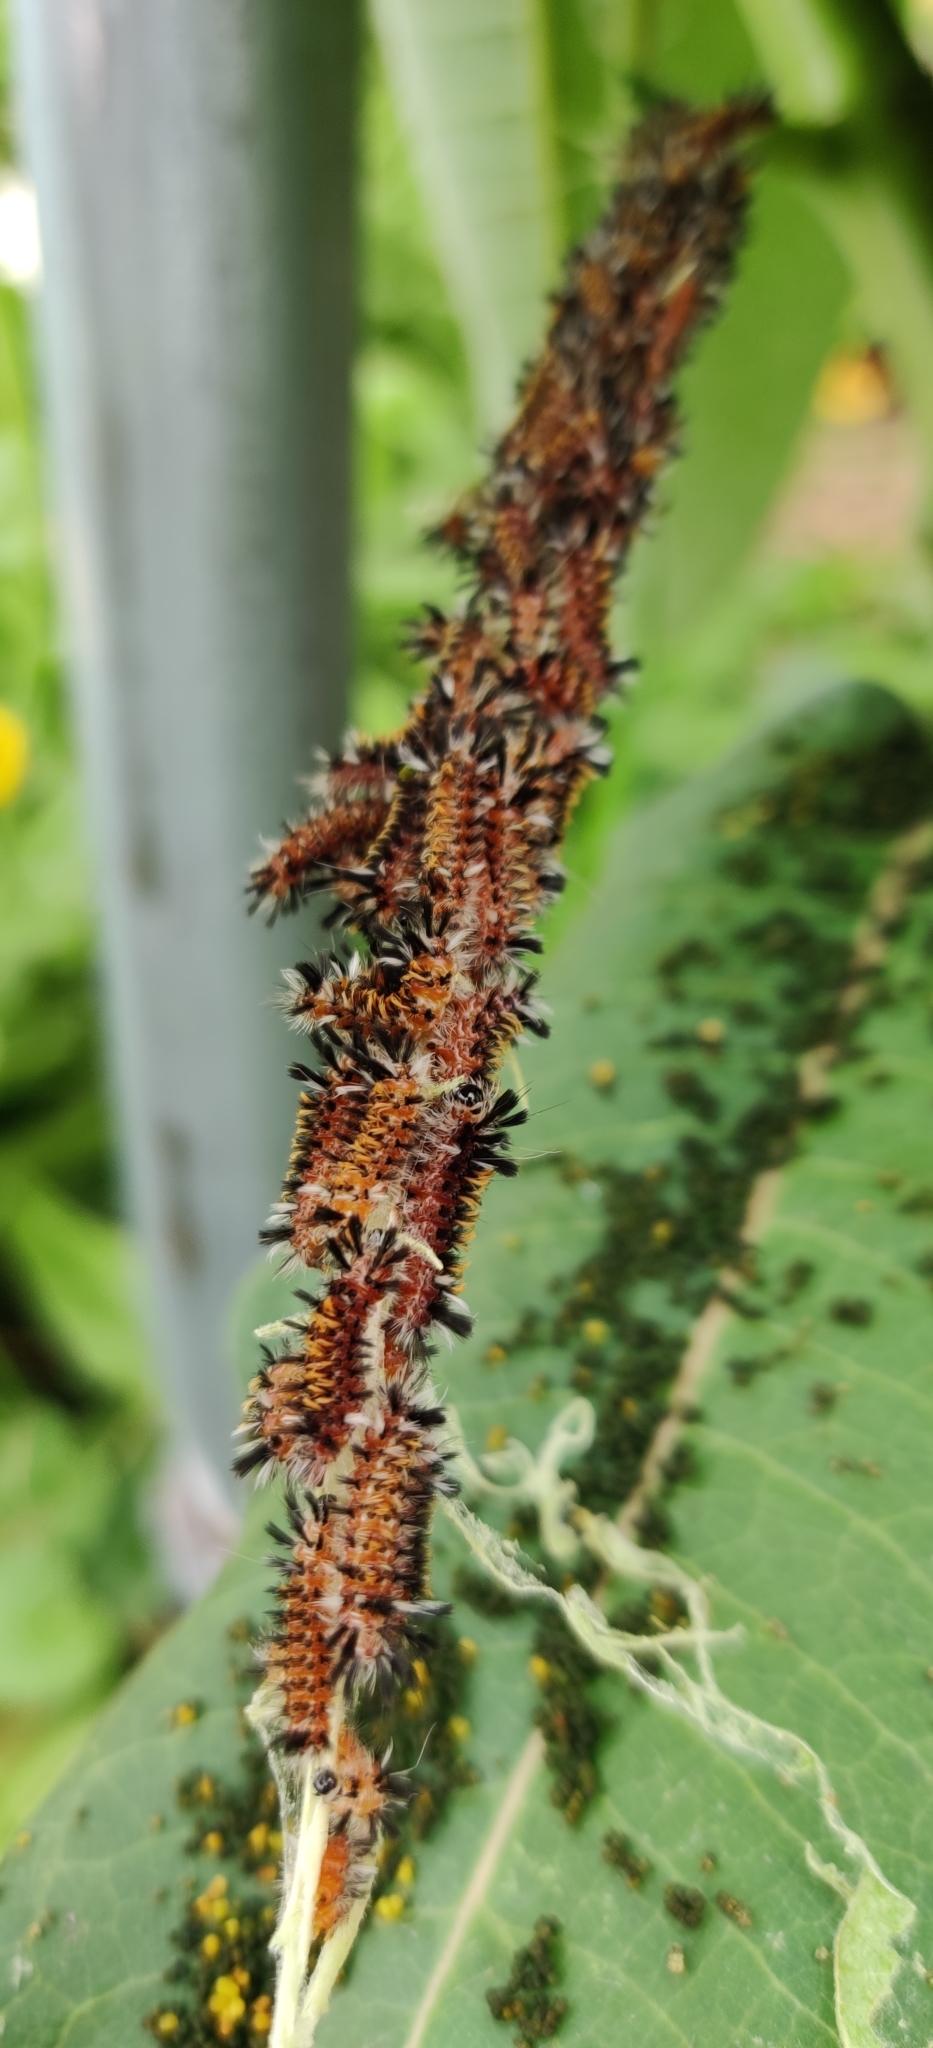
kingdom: Animalia
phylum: Arthropoda
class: Insecta
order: Lepidoptera
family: Erebidae
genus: Euchaetes
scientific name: Euchaetes egle
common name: Milkweed tussock moth
